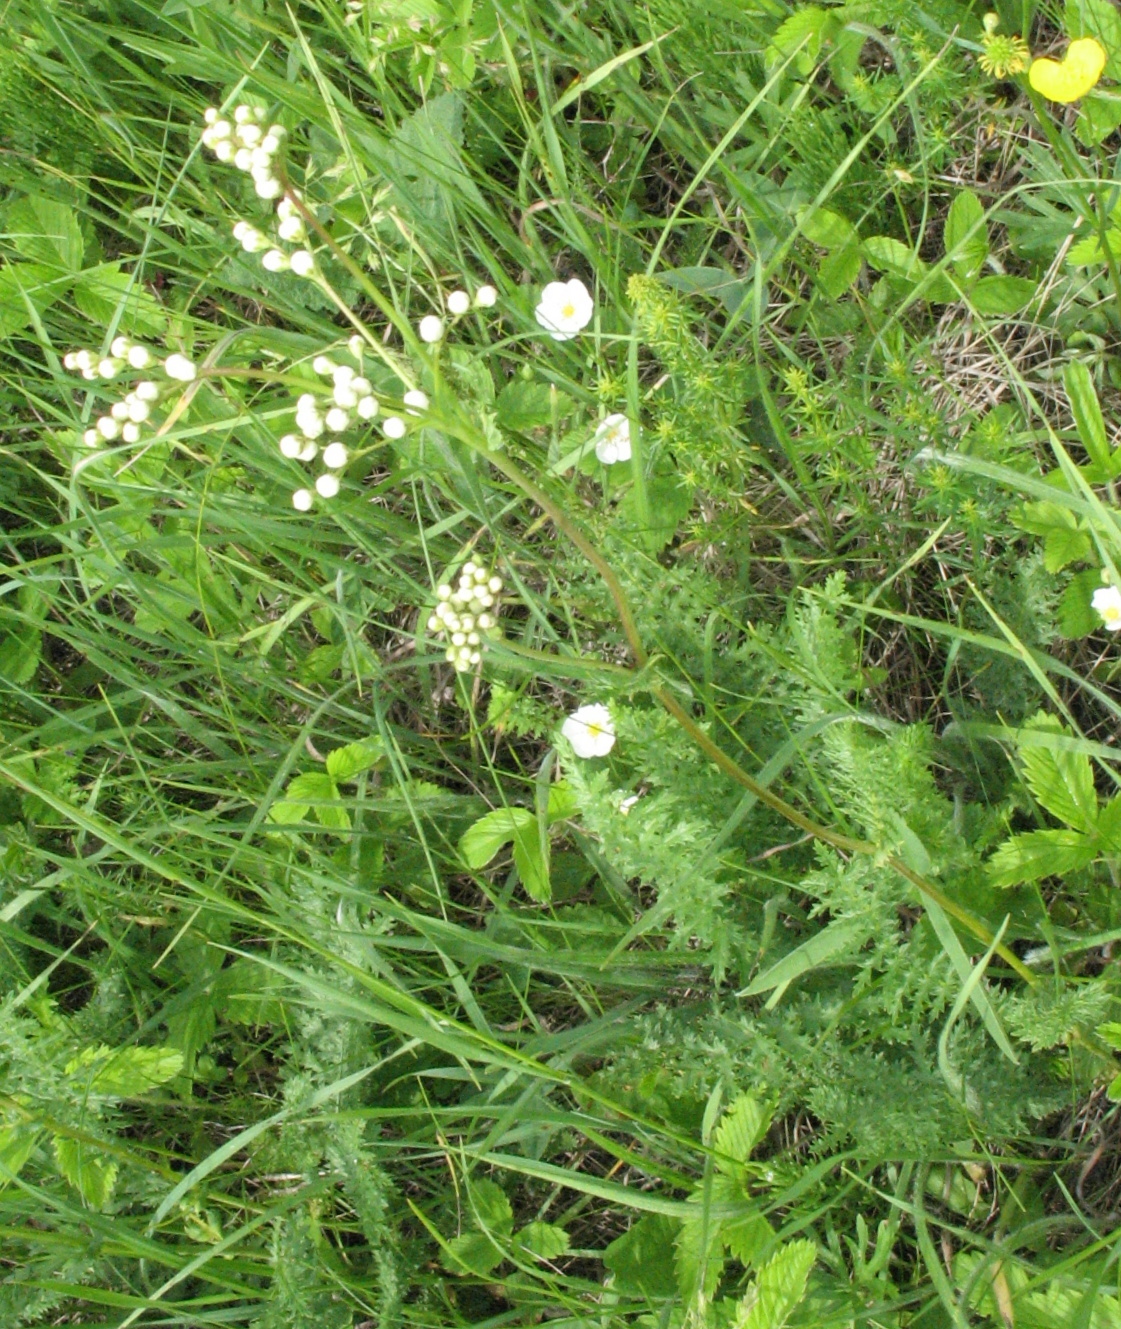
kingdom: Plantae
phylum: Tracheophyta
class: Magnoliopsida
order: Rosales
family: Rosaceae
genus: Filipendula
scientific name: Filipendula vulgaris
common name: Dropwort
